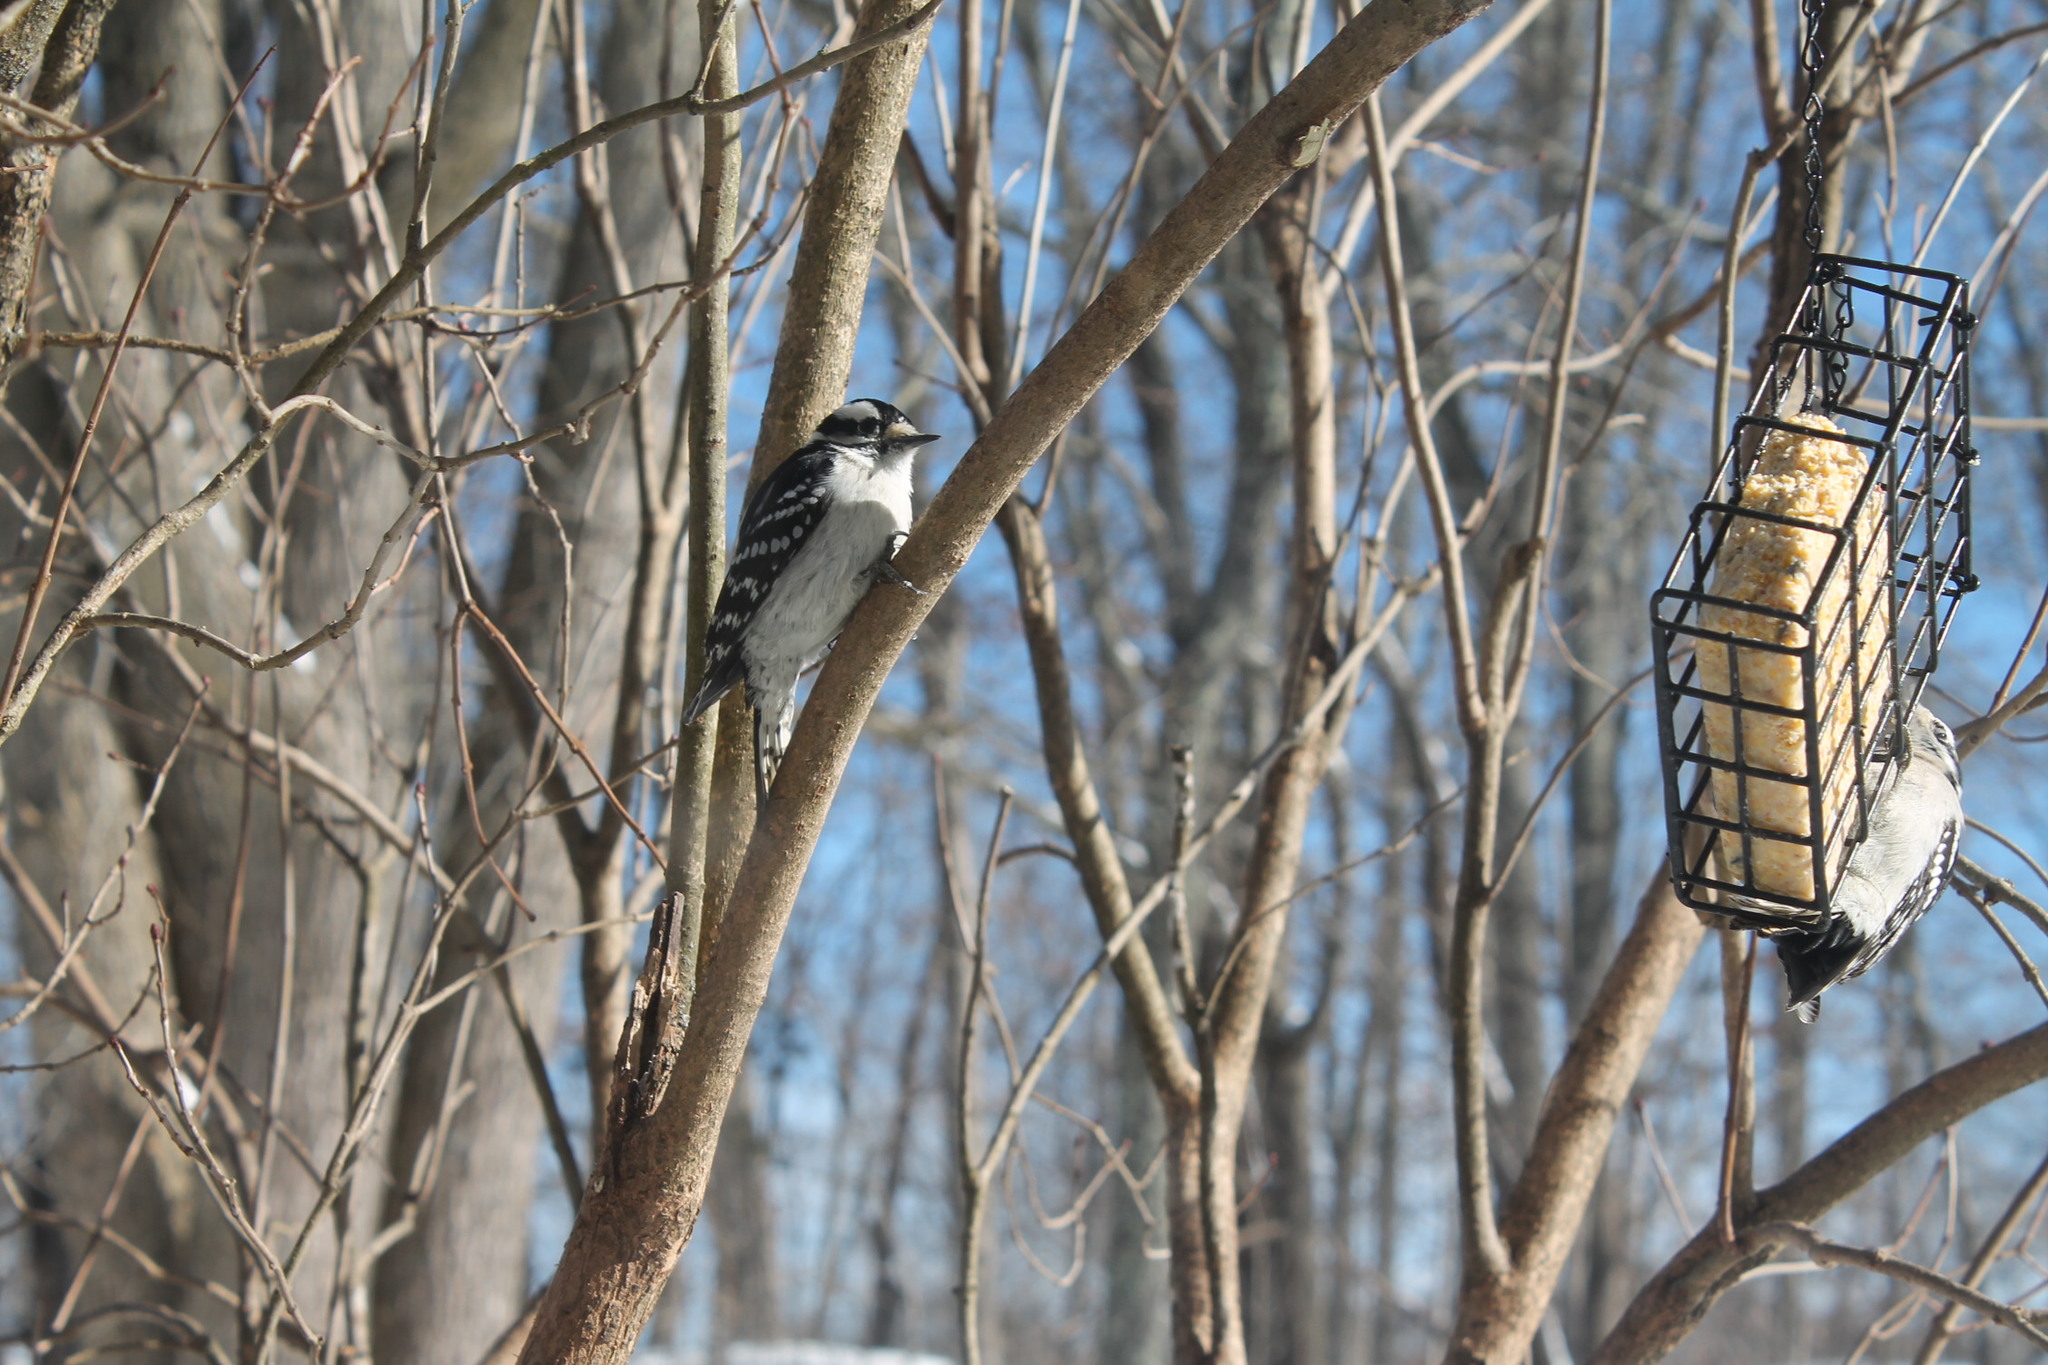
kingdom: Animalia
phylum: Chordata
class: Aves
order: Piciformes
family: Picidae
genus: Dryobates
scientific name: Dryobates pubescens
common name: Downy woodpecker
